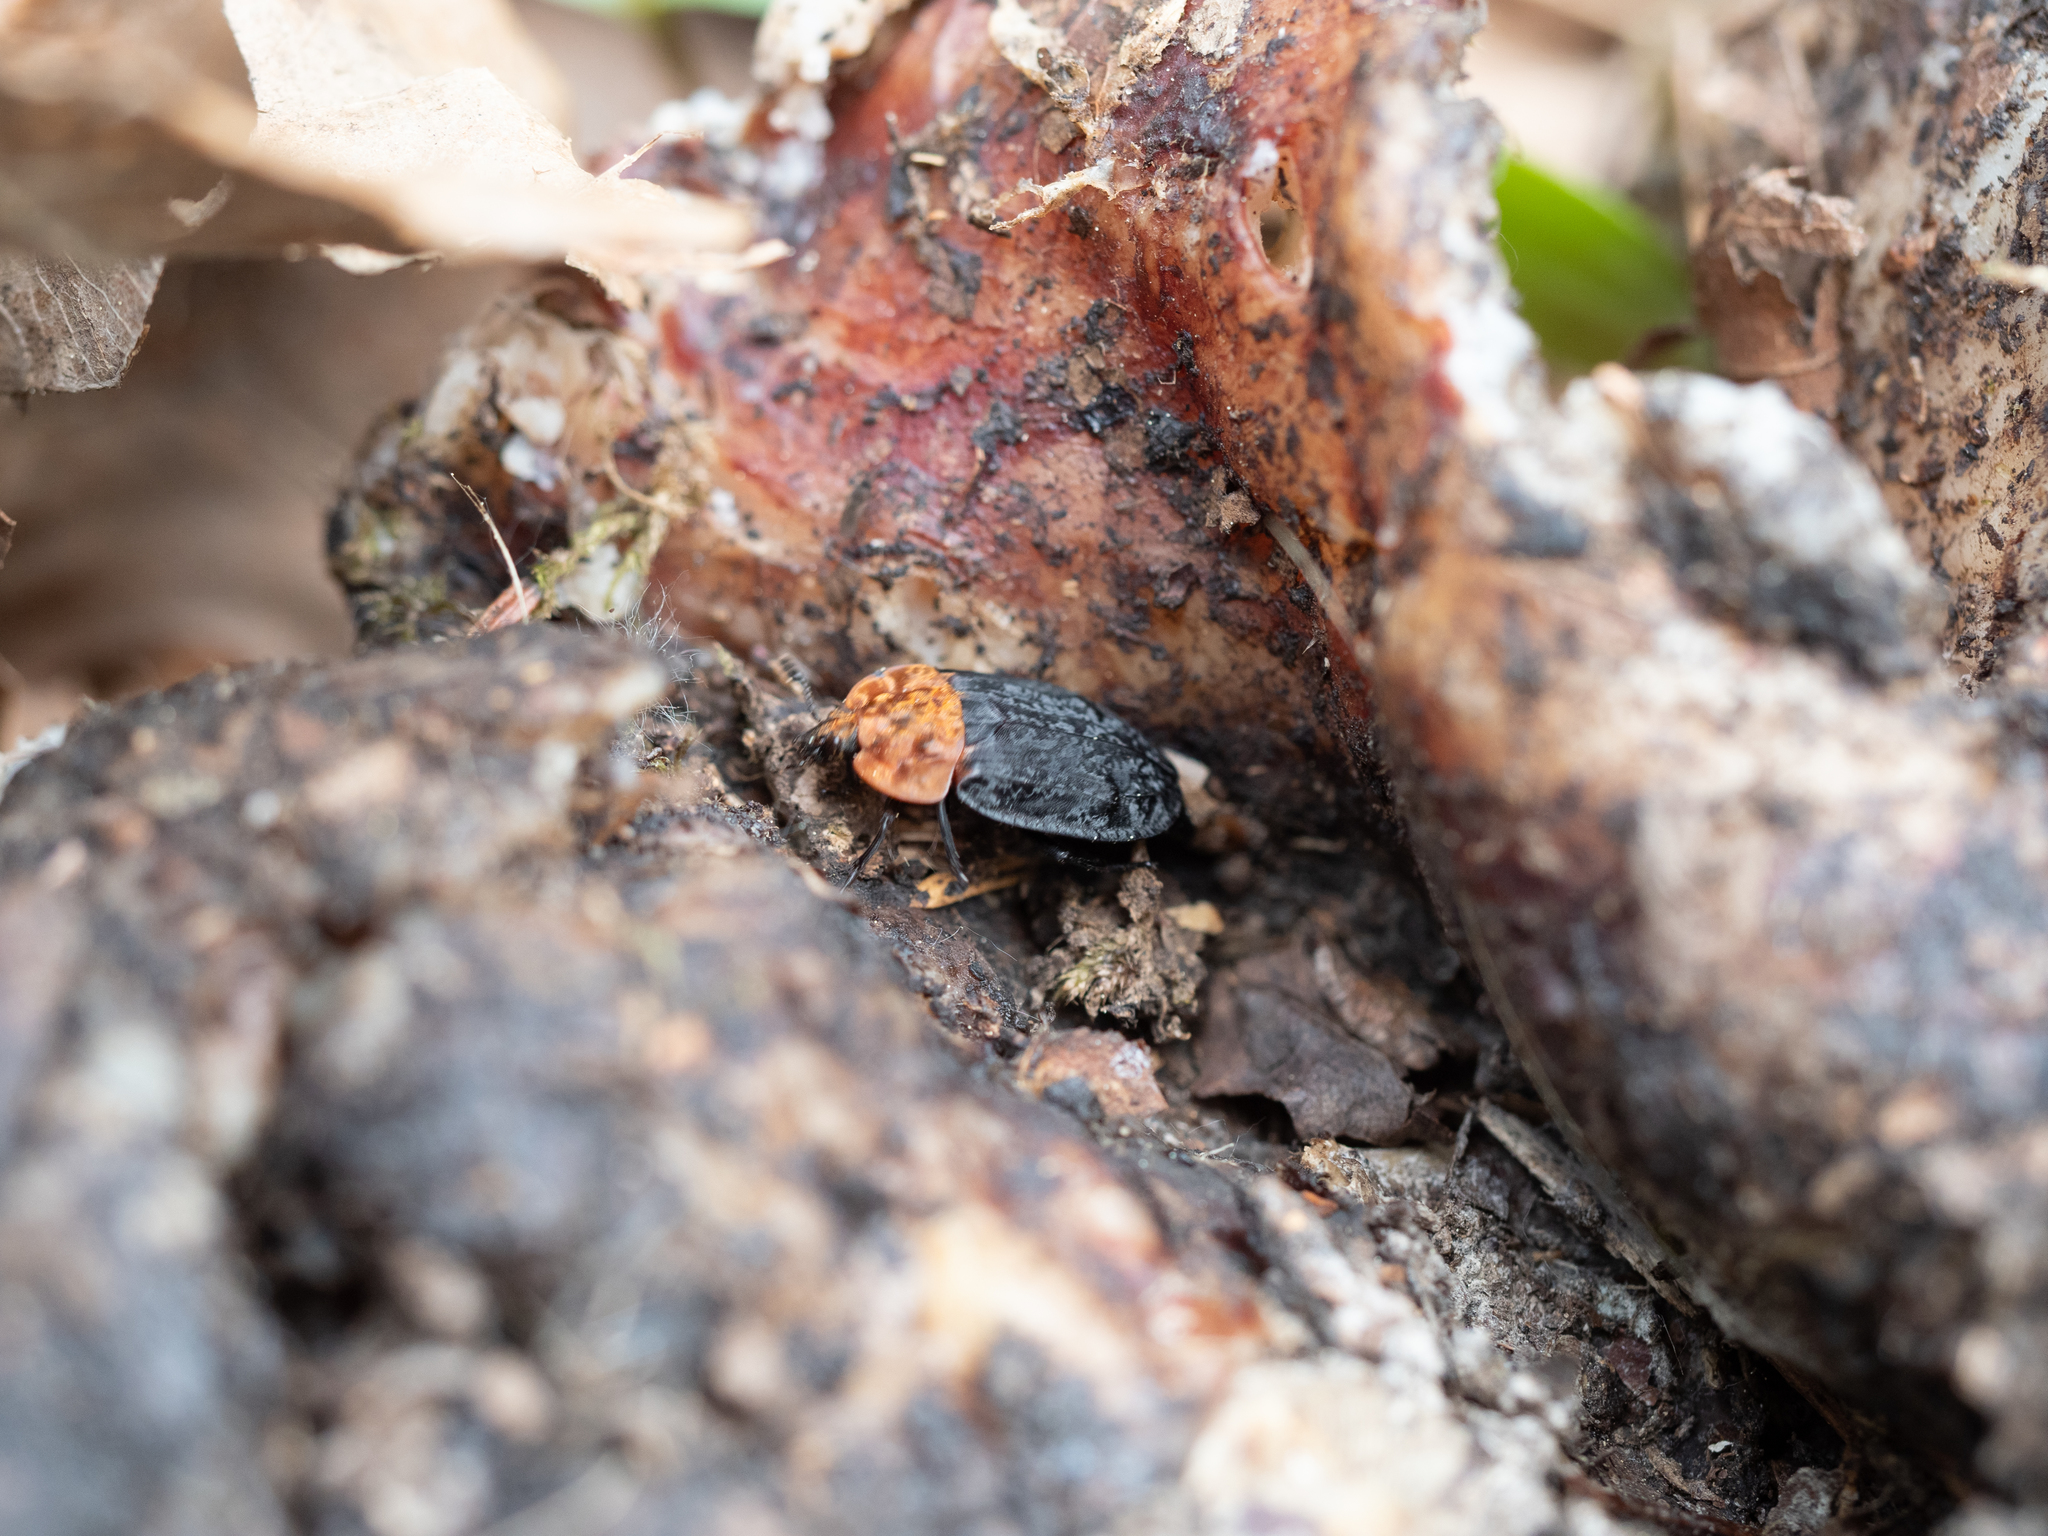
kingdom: Animalia
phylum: Arthropoda
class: Insecta
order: Coleoptera
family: Staphylinidae
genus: Oiceoptoma
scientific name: Oiceoptoma thoracicum
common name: Red-breasted carrion beetle
